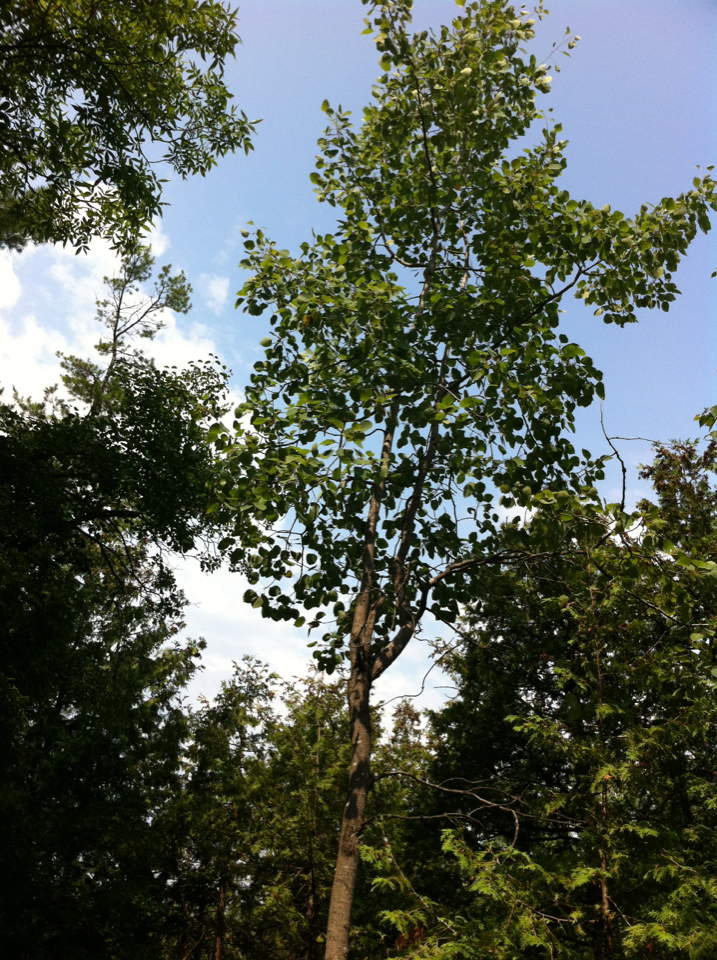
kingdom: Plantae
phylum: Tracheophyta
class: Magnoliopsida
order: Malpighiales
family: Salicaceae
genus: Populus
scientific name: Populus grandidentata
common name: Bigtooth aspen
